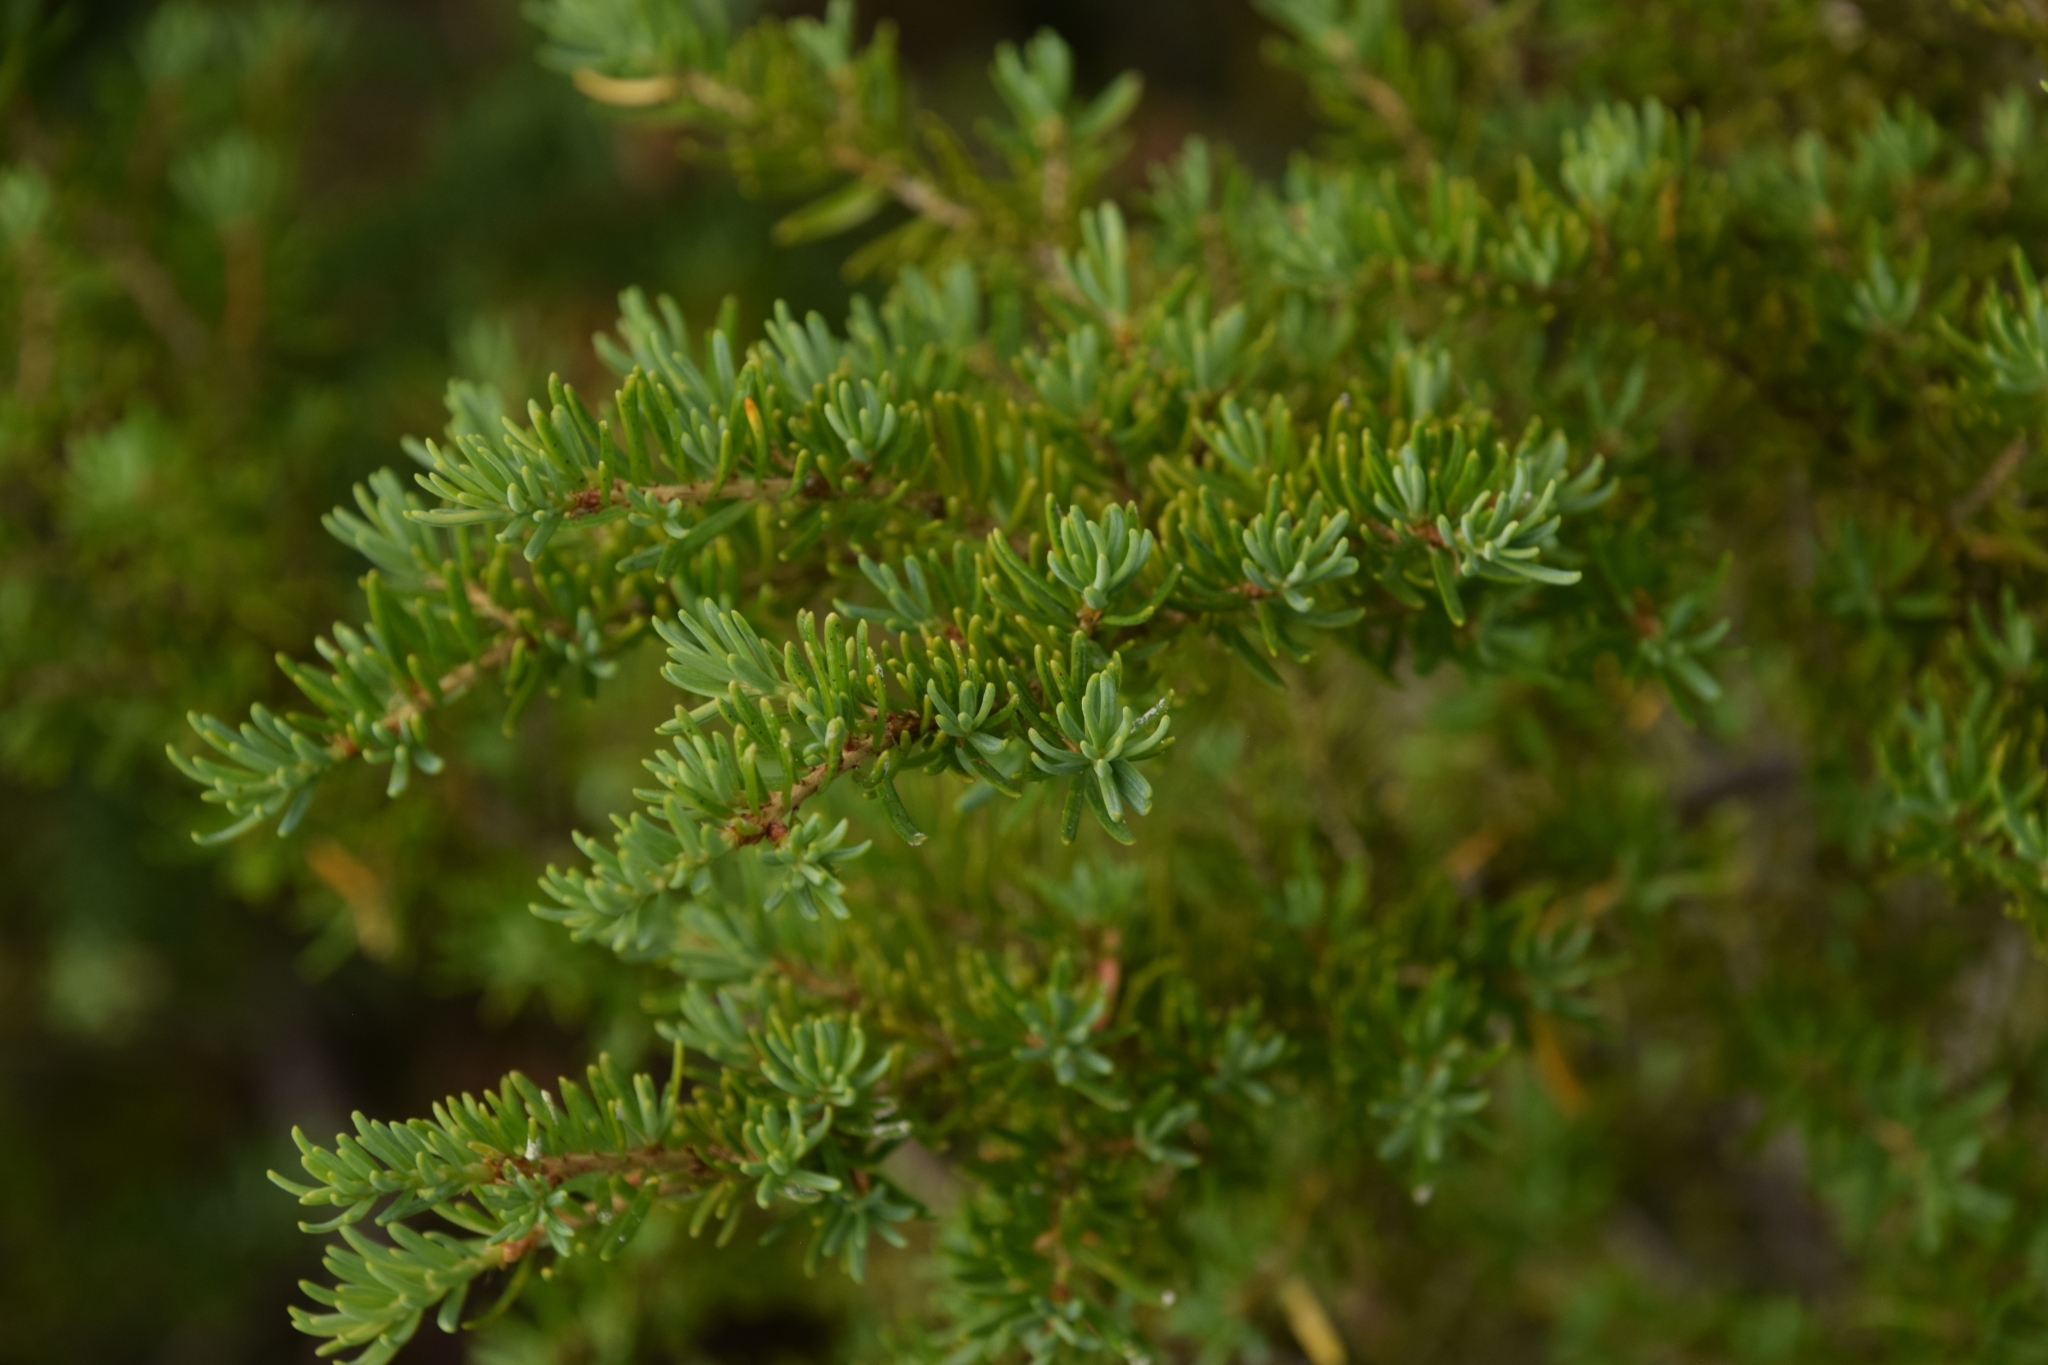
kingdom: Plantae
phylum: Tracheophyta
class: Pinopsida
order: Pinales
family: Pinaceae
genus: Tsuga
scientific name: Tsuga mertensiana
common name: Mountain hemlock
